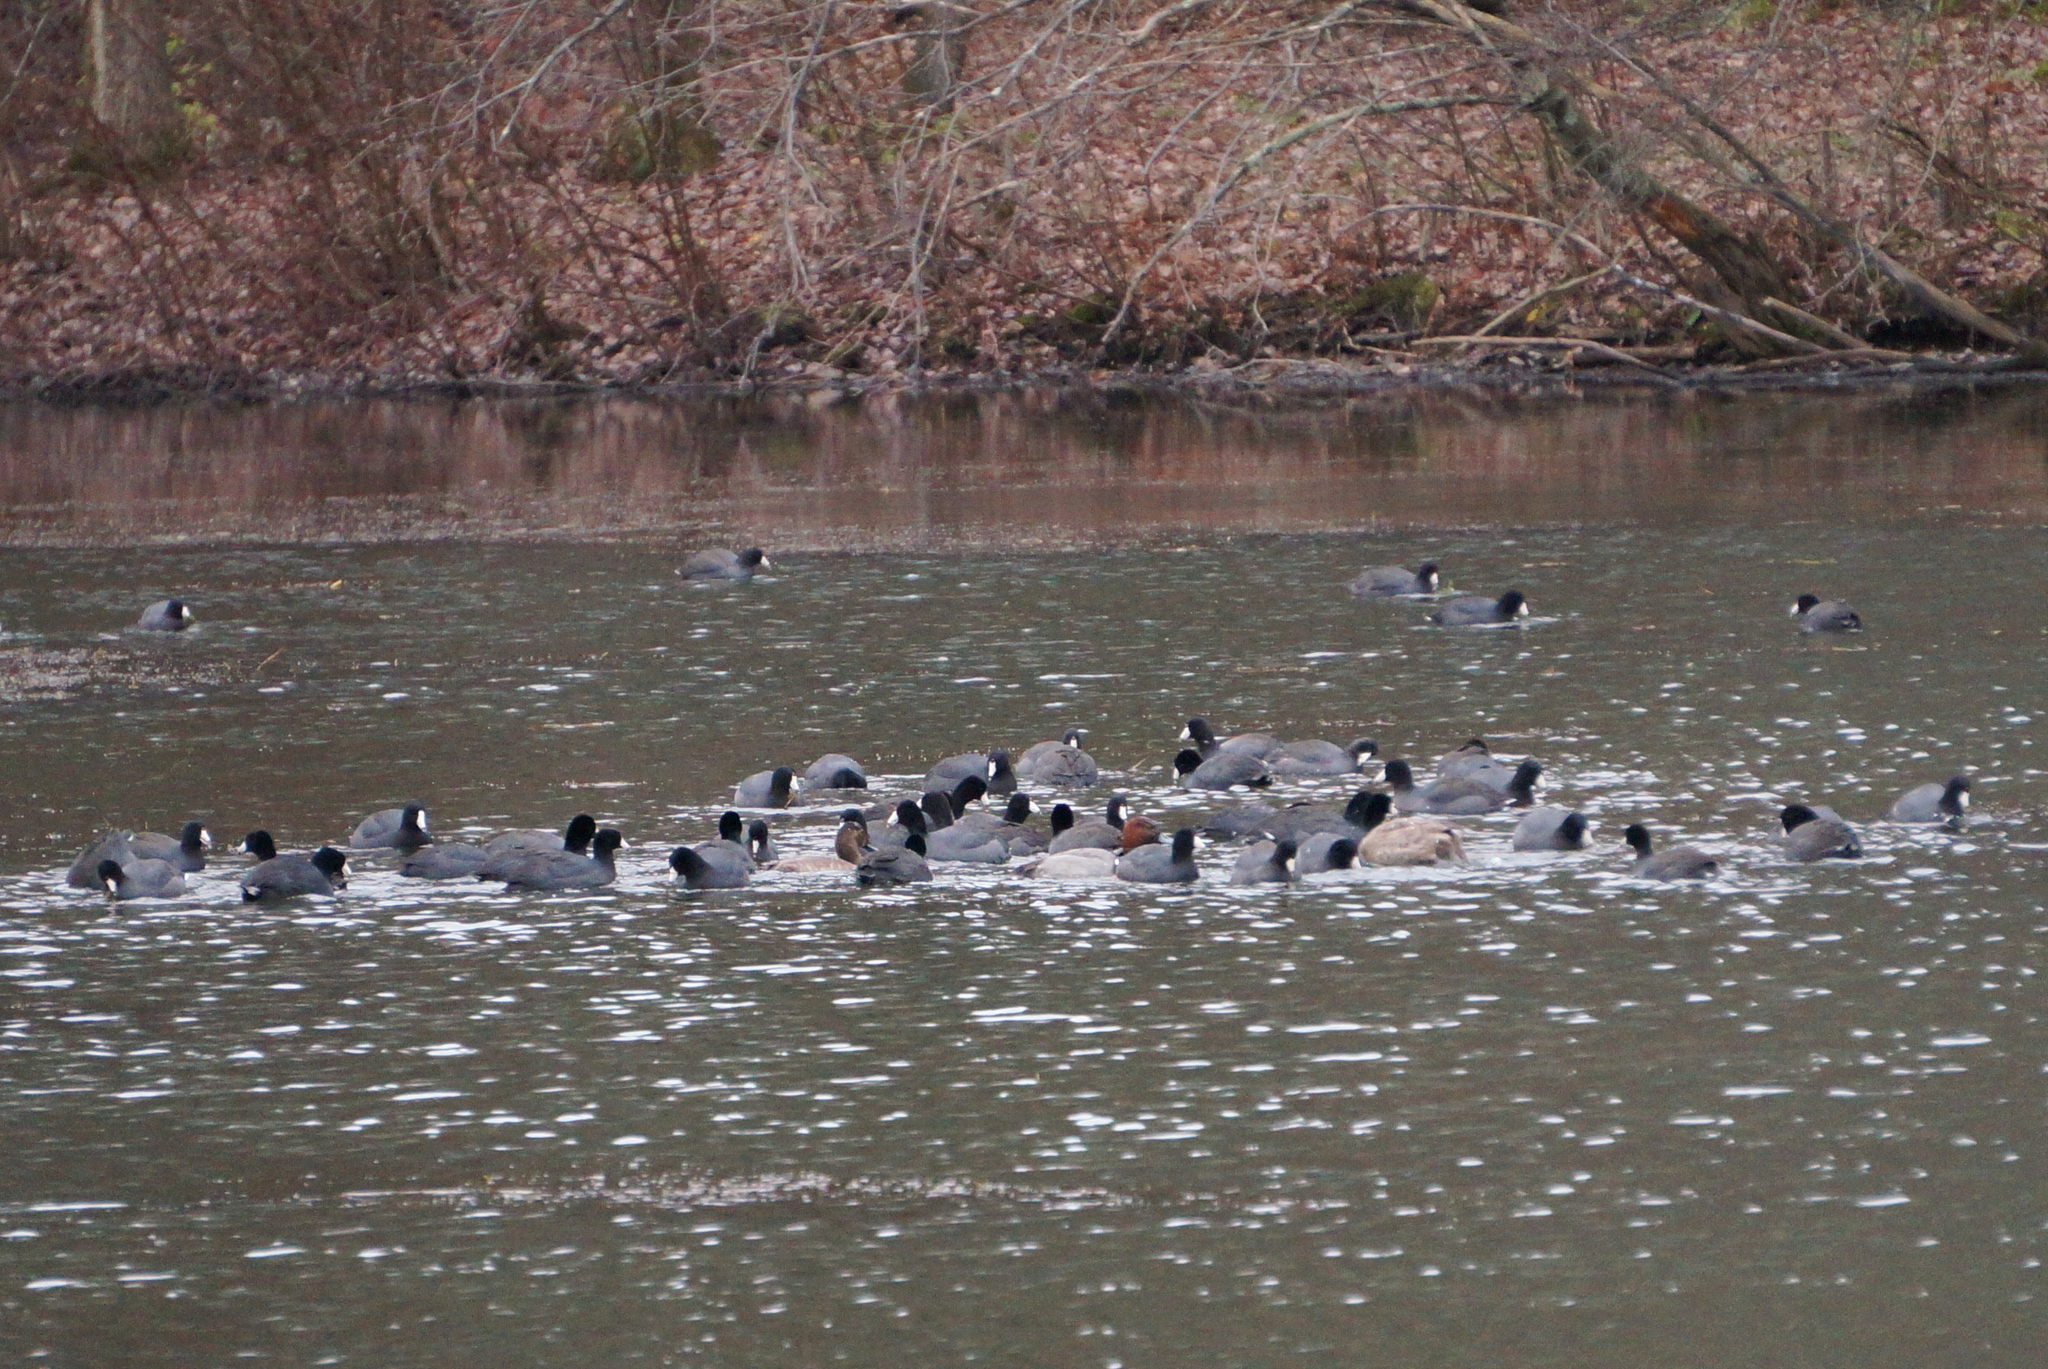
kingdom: Animalia
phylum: Chordata
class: Aves
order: Gruiformes
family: Rallidae
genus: Fulica
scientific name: Fulica americana
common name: American coot
